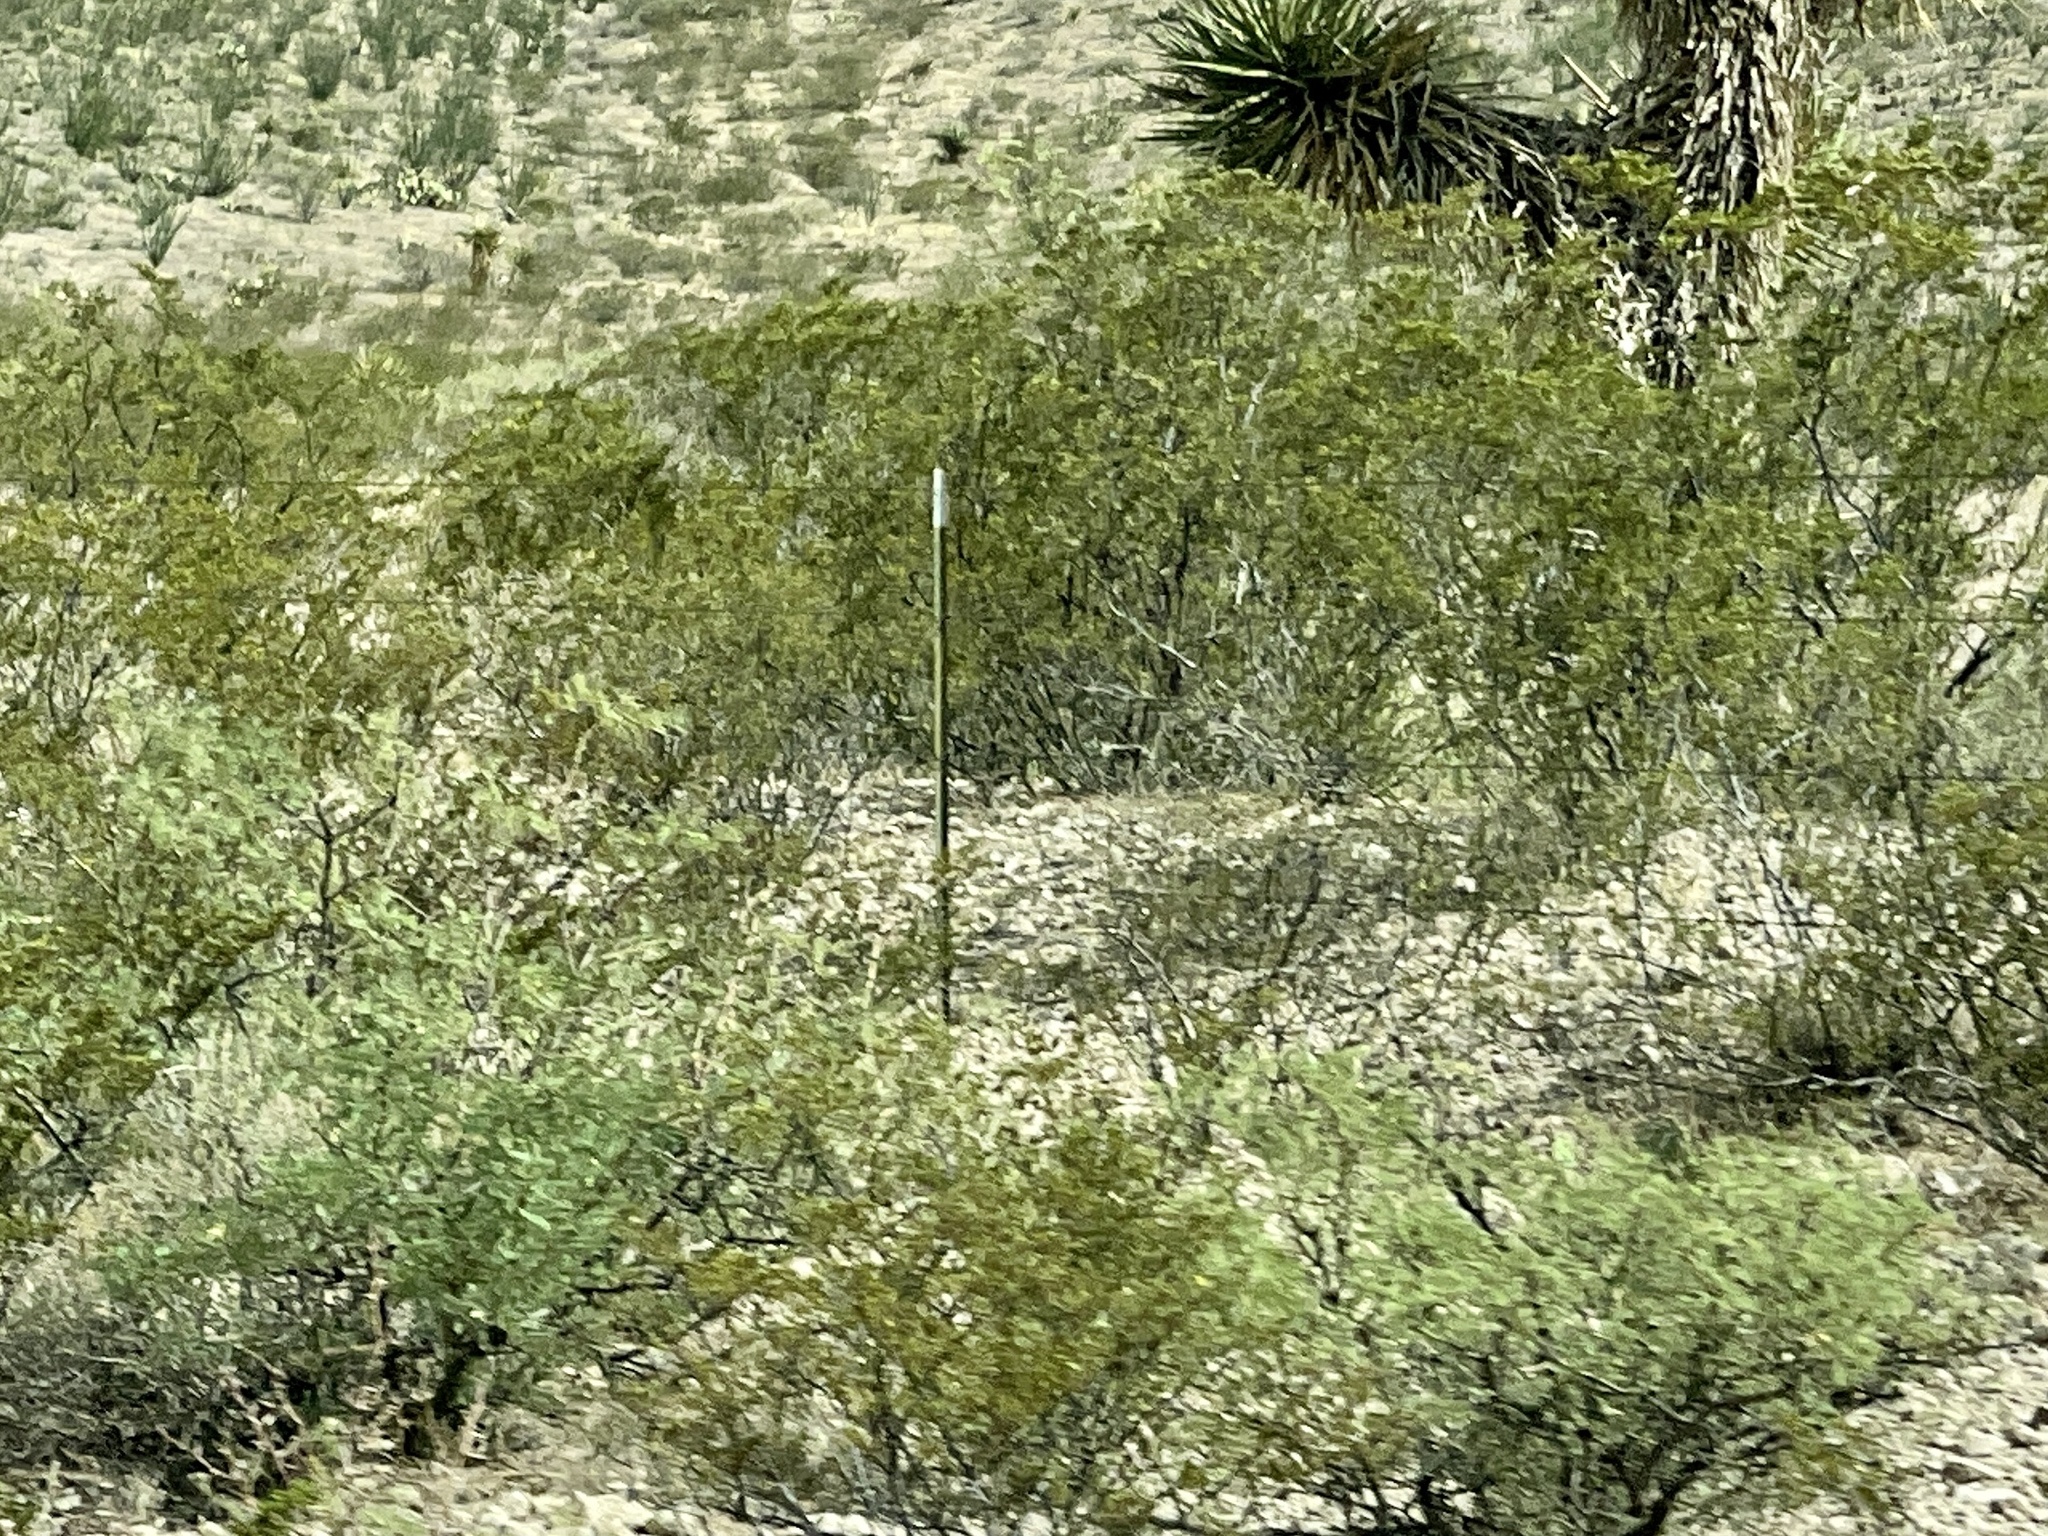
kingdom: Plantae
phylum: Tracheophyta
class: Magnoliopsida
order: Zygophyllales
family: Zygophyllaceae
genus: Larrea
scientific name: Larrea tridentata
